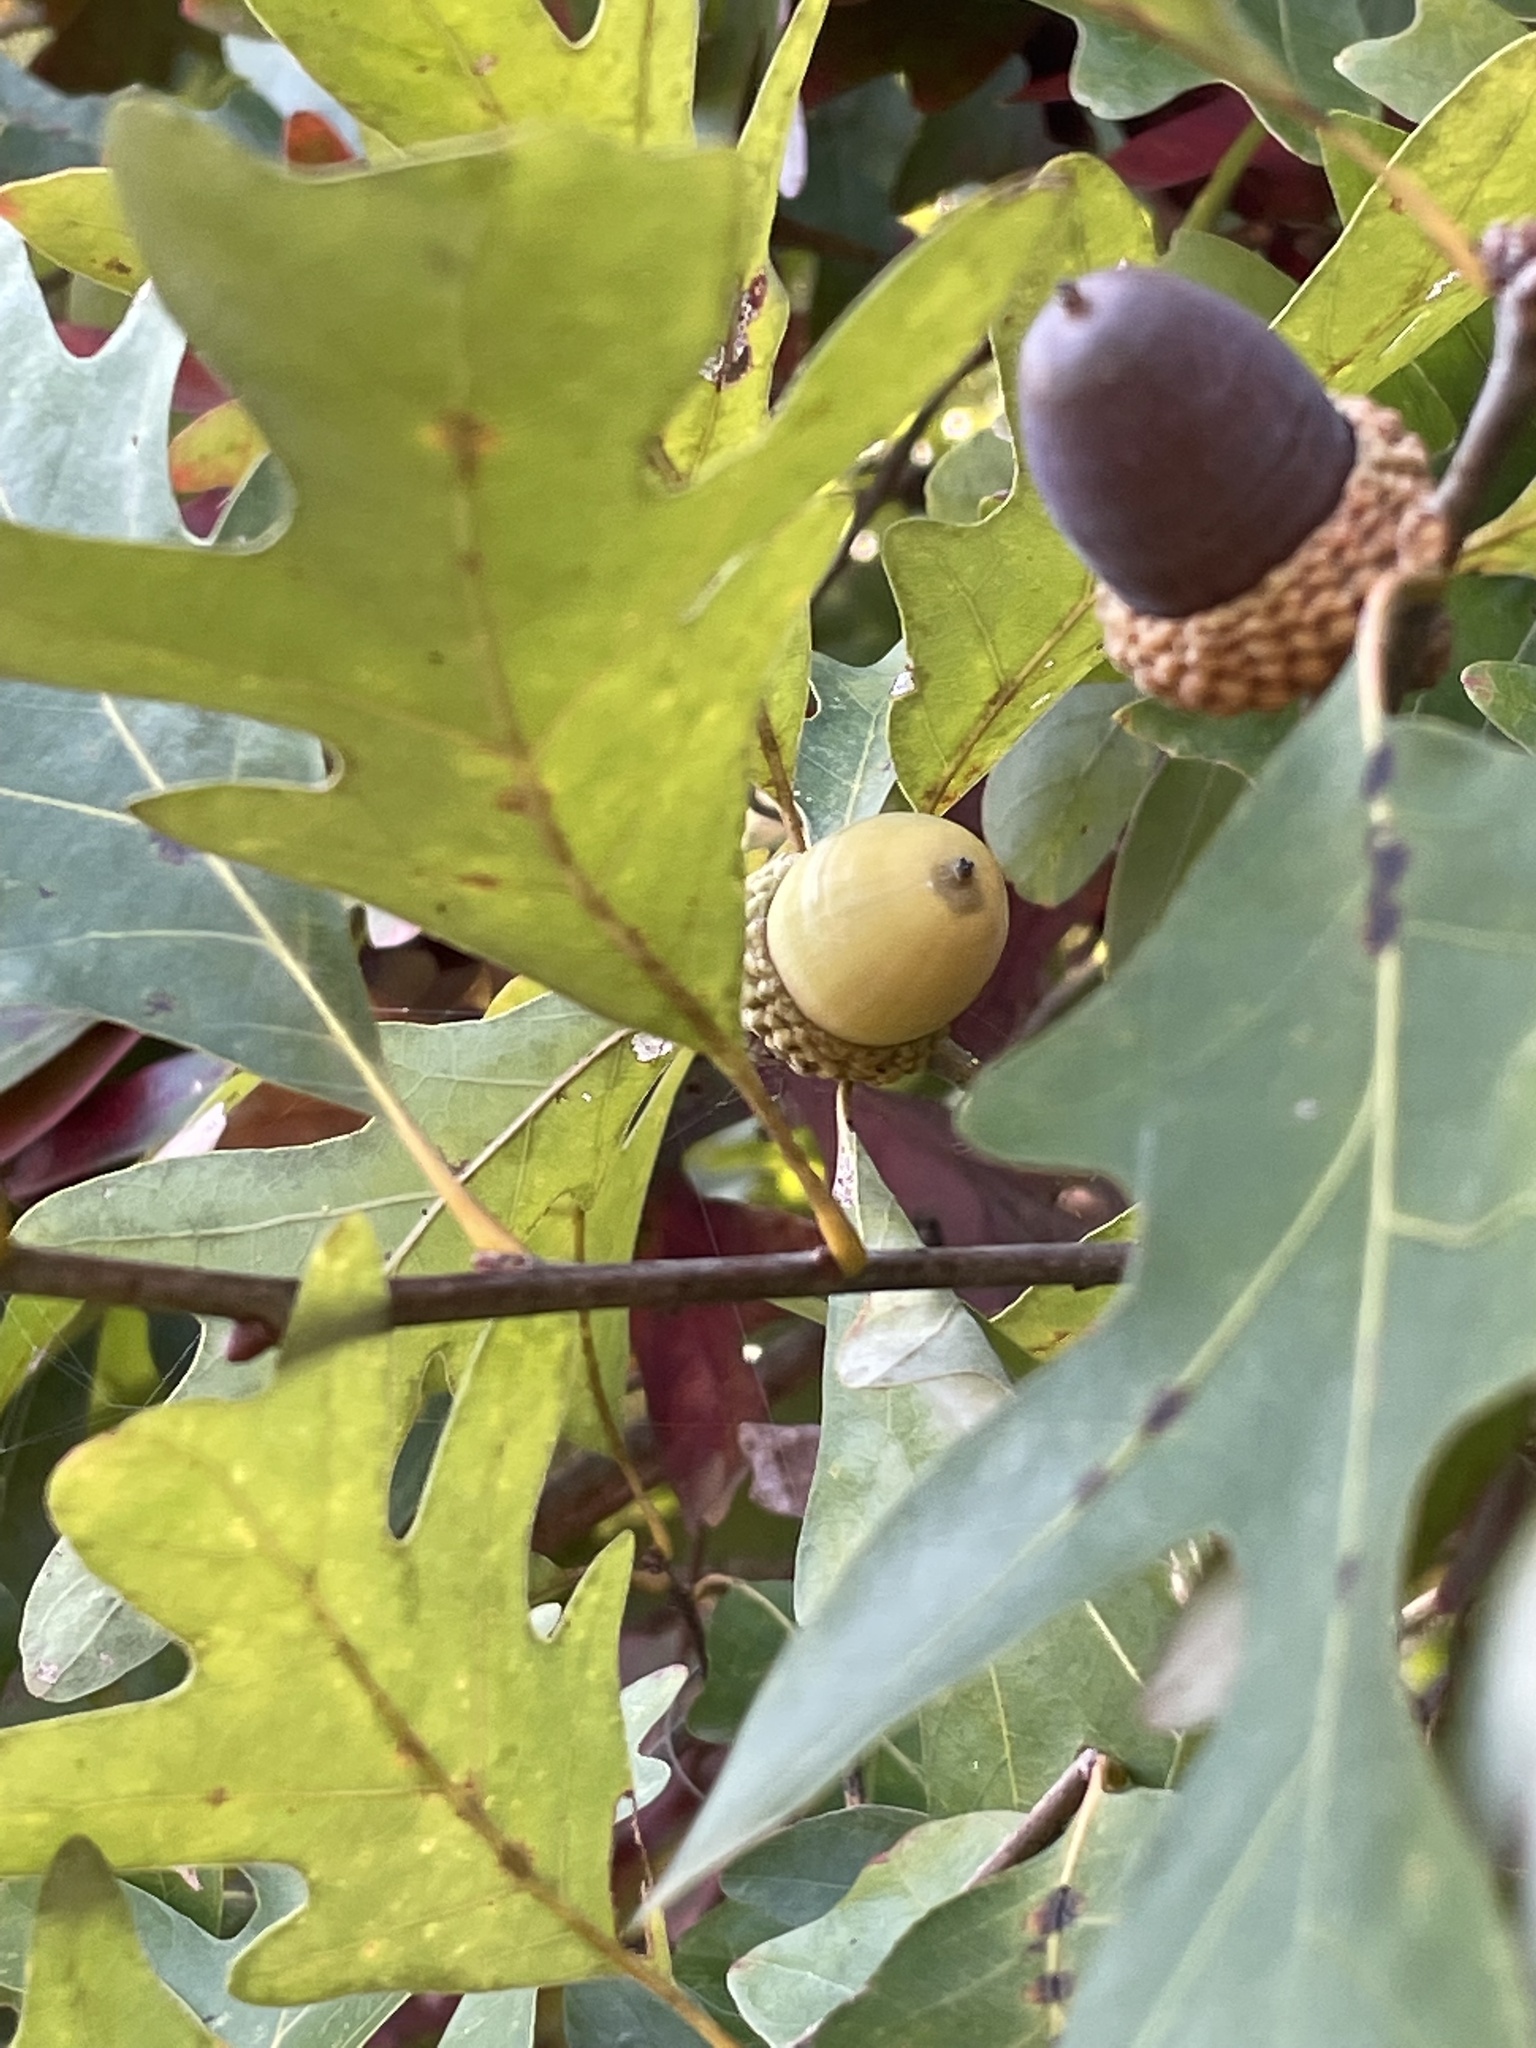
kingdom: Plantae
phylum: Tracheophyta
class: Magnoliopsida
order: Fagales
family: Fagaceae
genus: Quercus
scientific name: Quercus alba
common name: White oak
